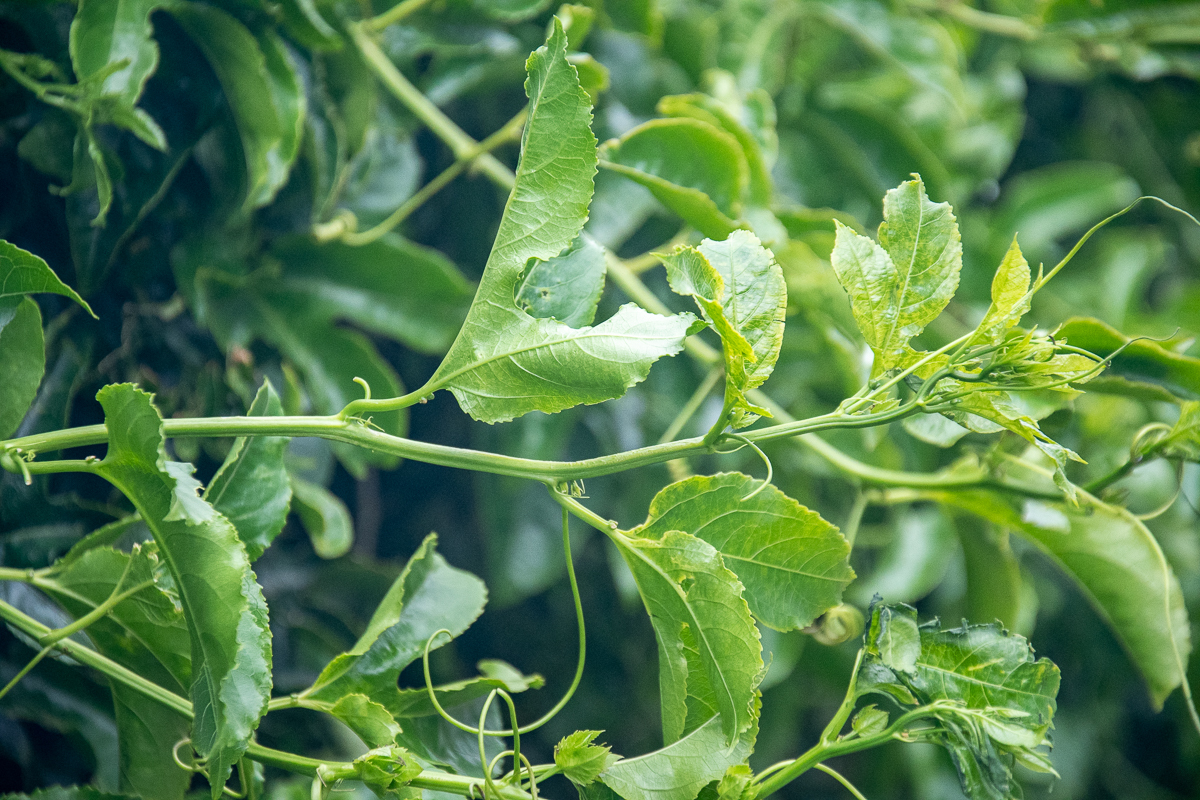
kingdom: Plantae
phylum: Tracheophyta
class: Magnoliopsida
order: Malpighiales
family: Passifloraceae
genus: Passiflora
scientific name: Passiflora edulis
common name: Purple granadilla
